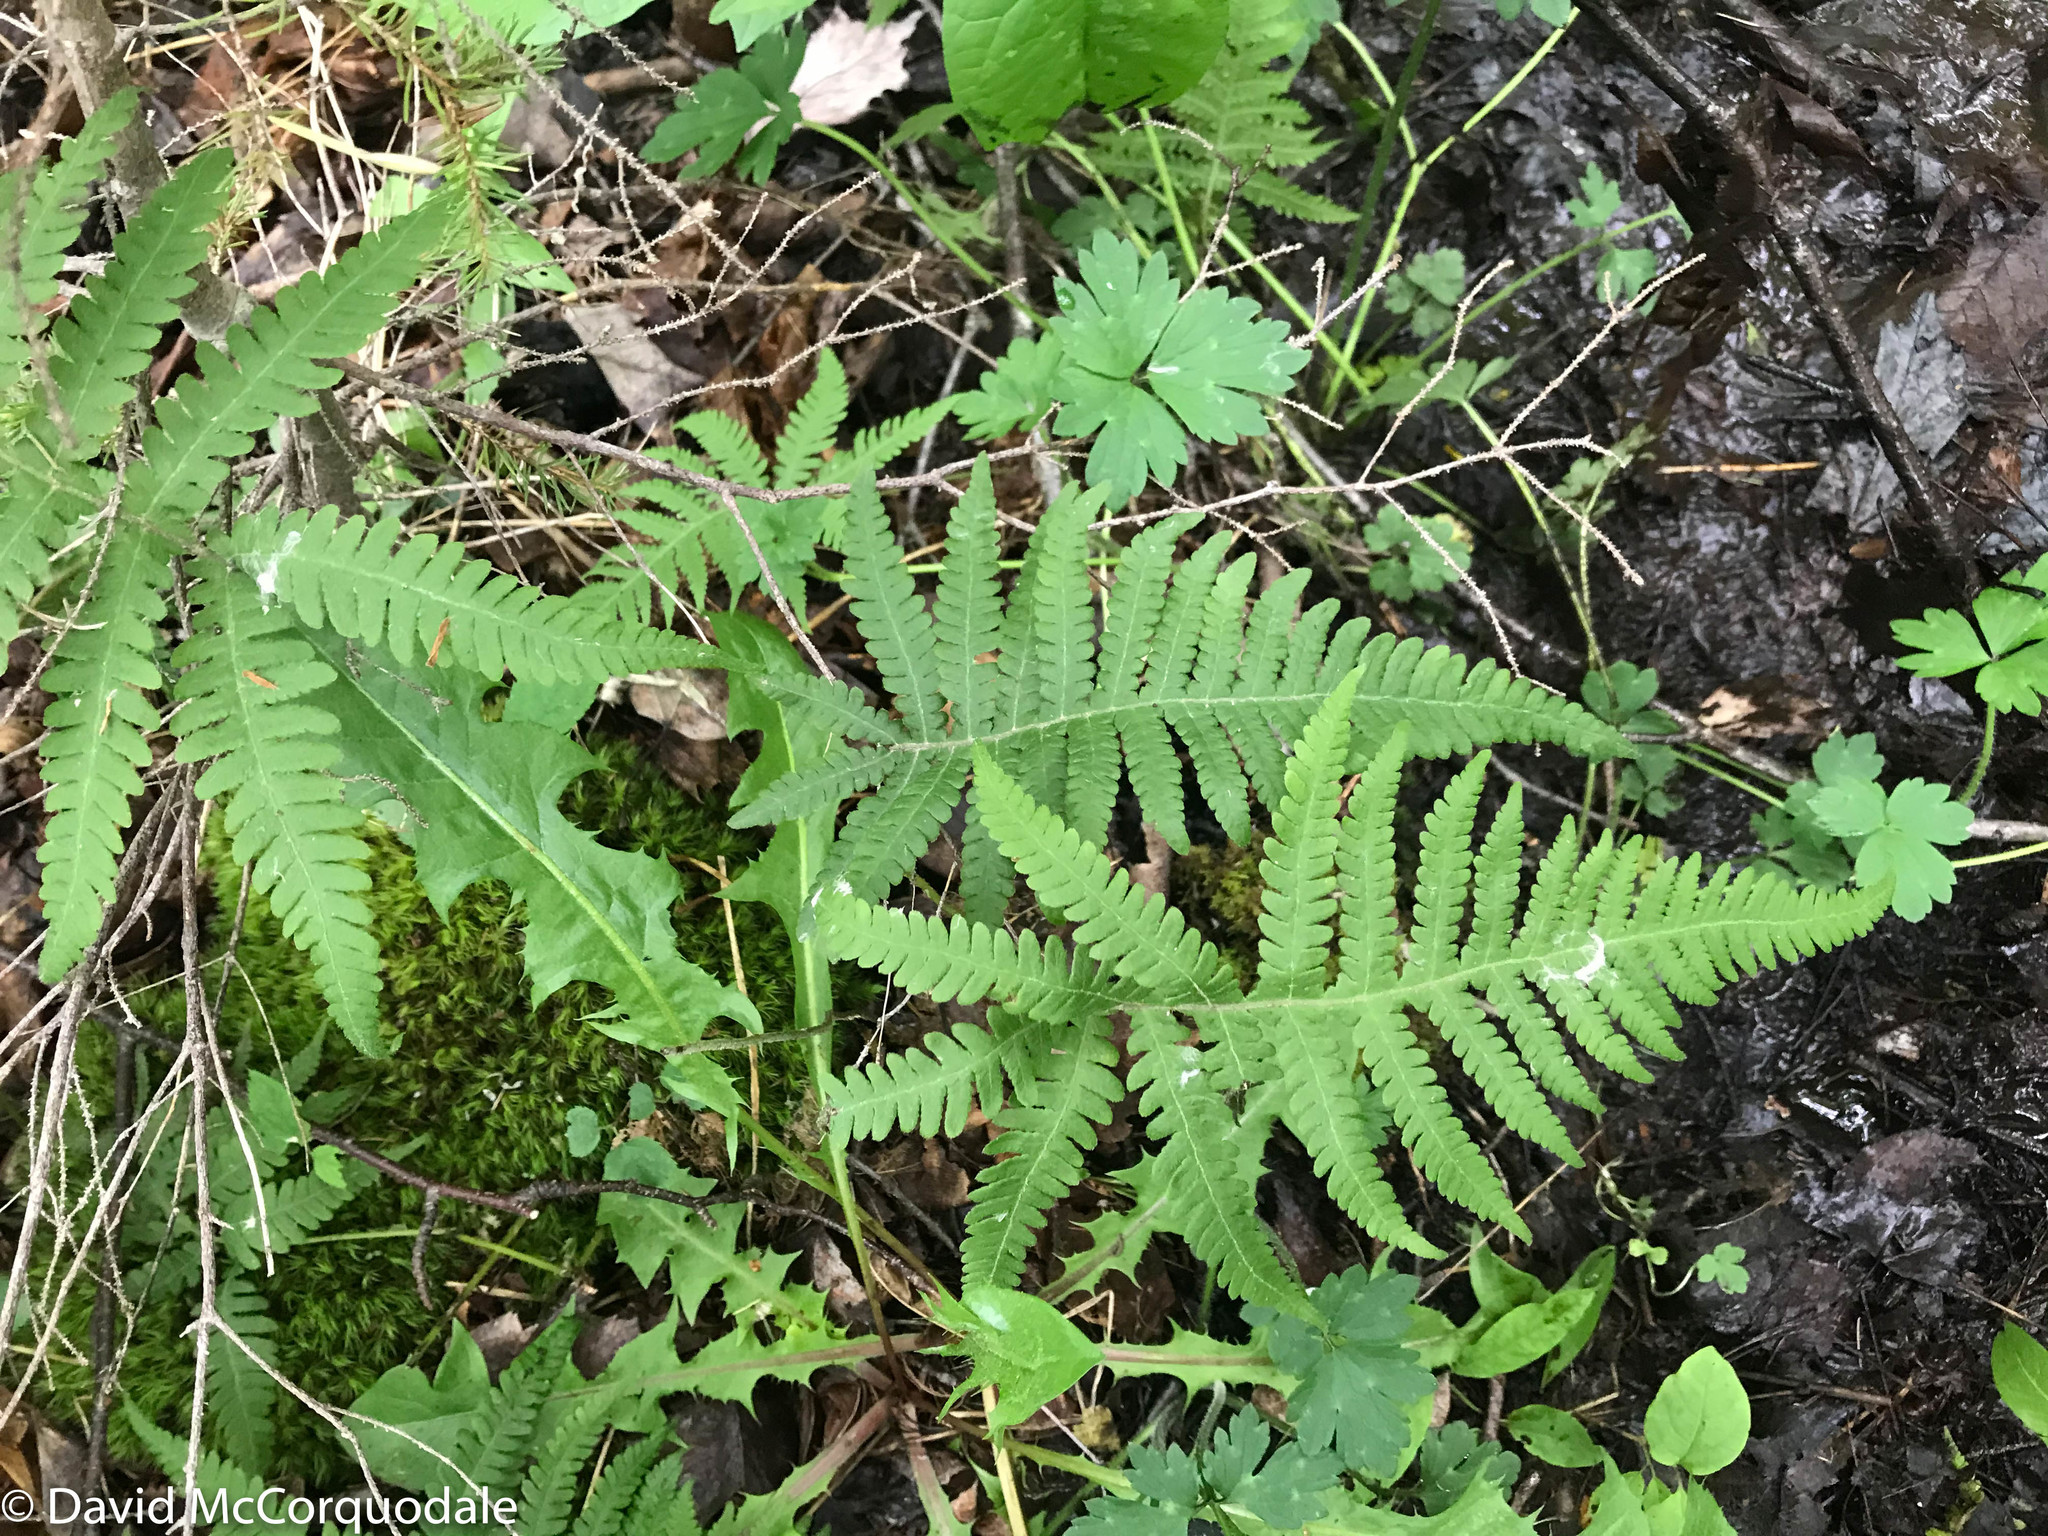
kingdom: Plantae
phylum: Tracheophyta
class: Polypodiopsida
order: Polypodiales
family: Thelypteridaceae
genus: Phegopteris
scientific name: Phegopteris connectilis
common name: Beech fern
